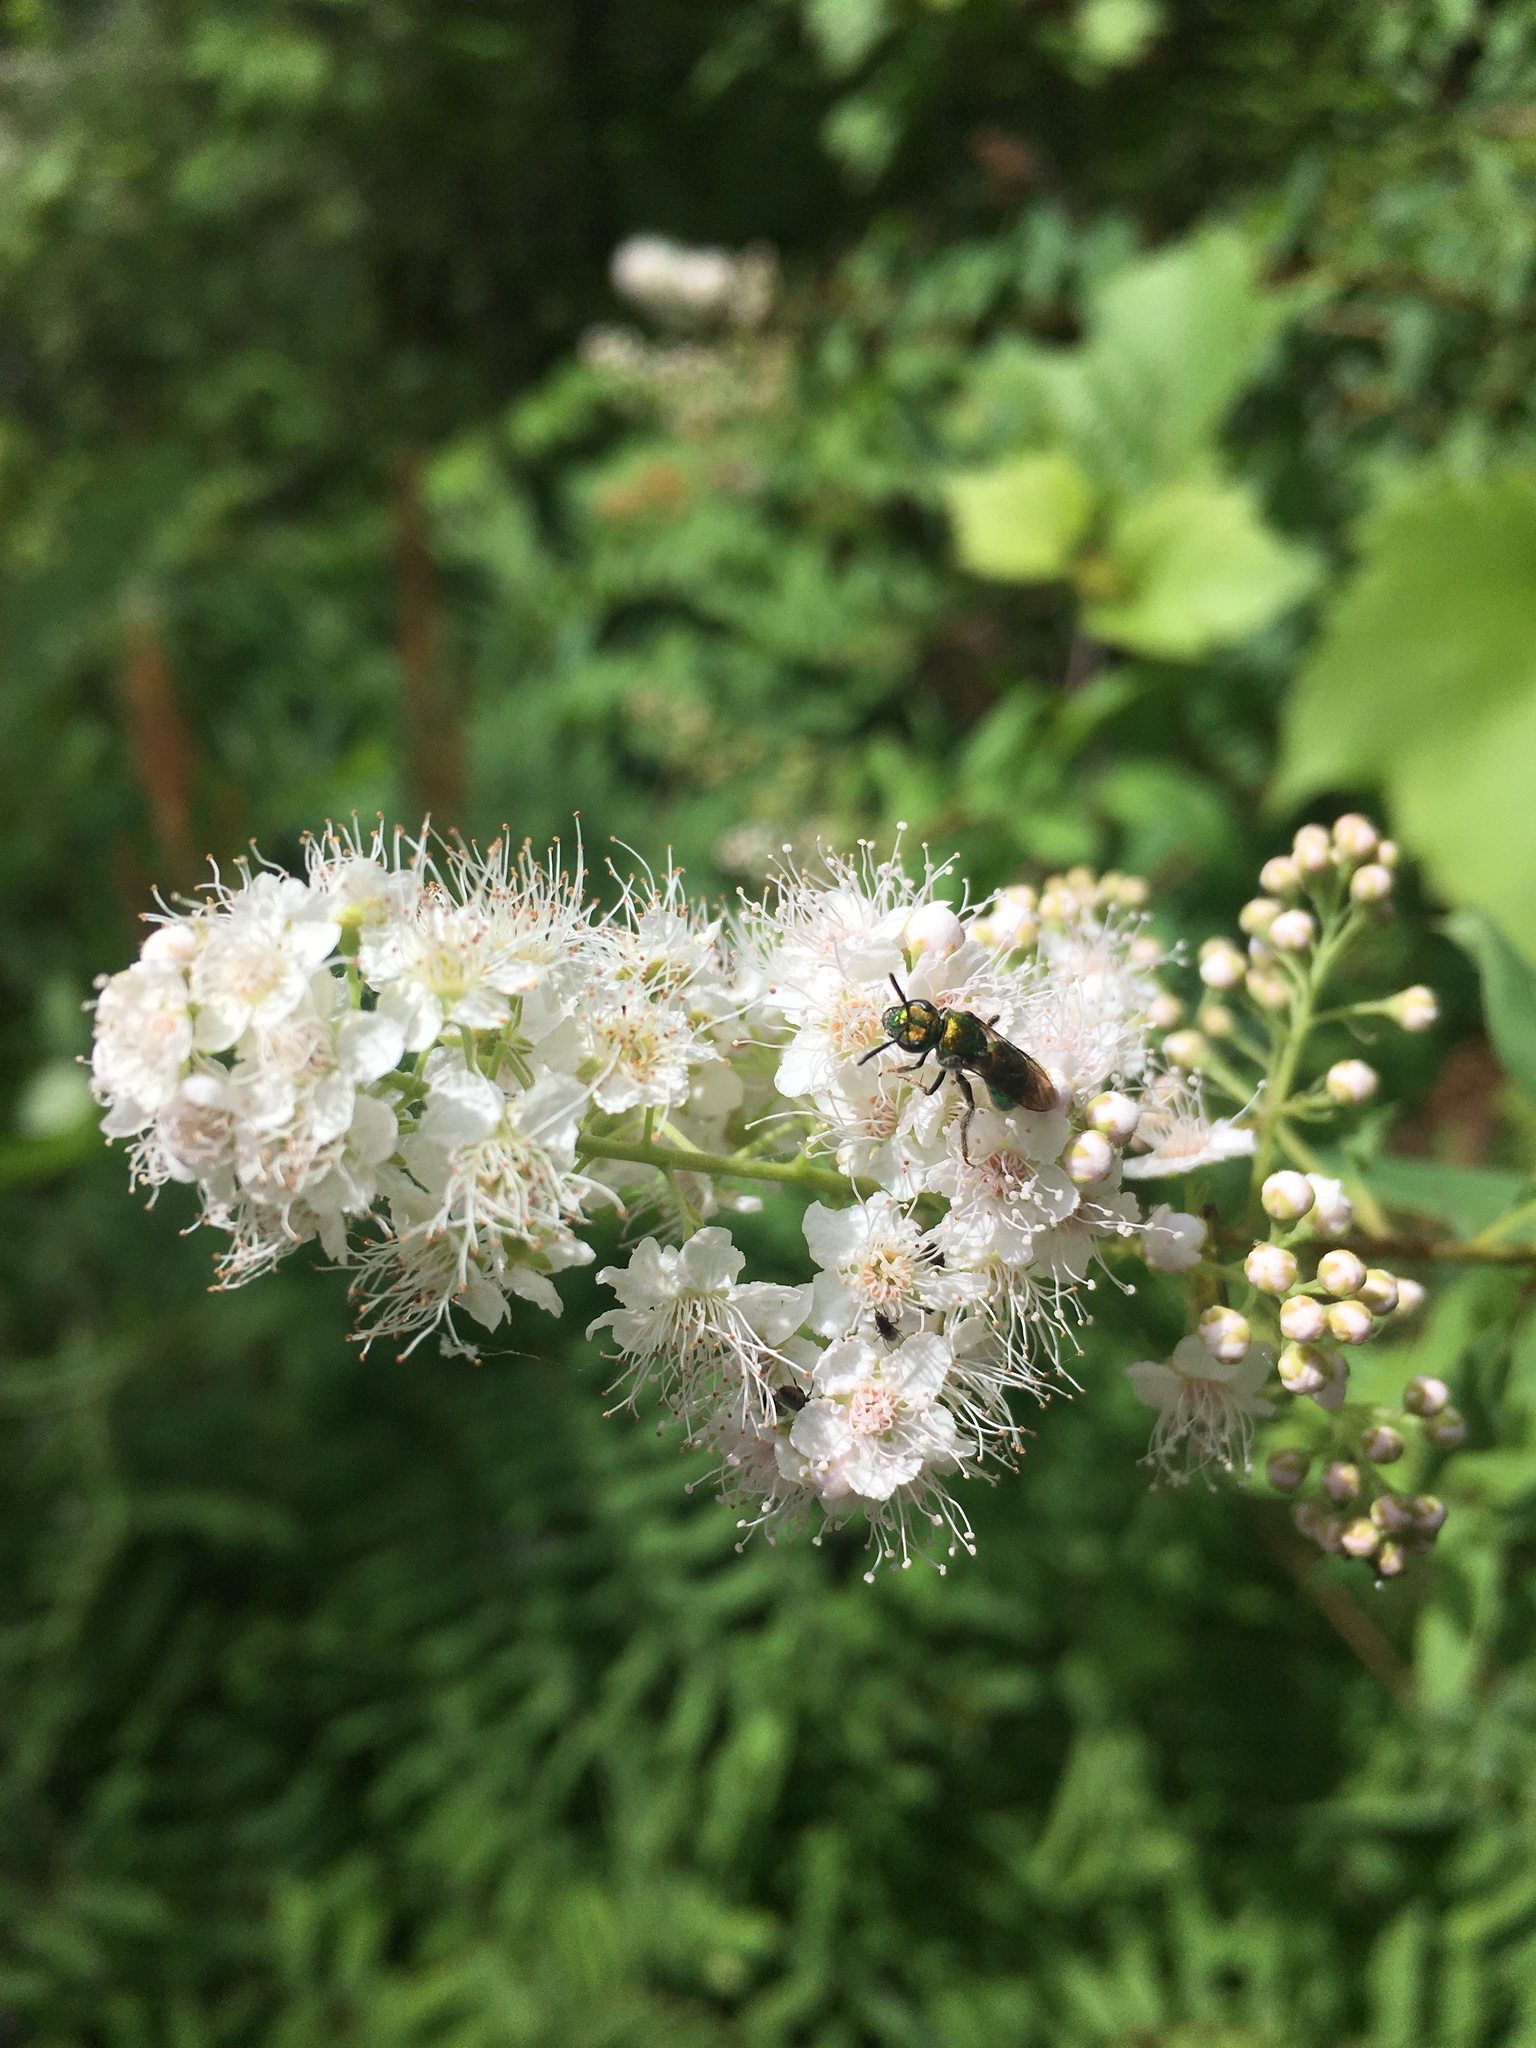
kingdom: Plantae
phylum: Tracheophyta
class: Magnoliopsida
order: Rosales
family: Rosaceae
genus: Spiraea
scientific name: Spiraea alba
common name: Pale bridewort
